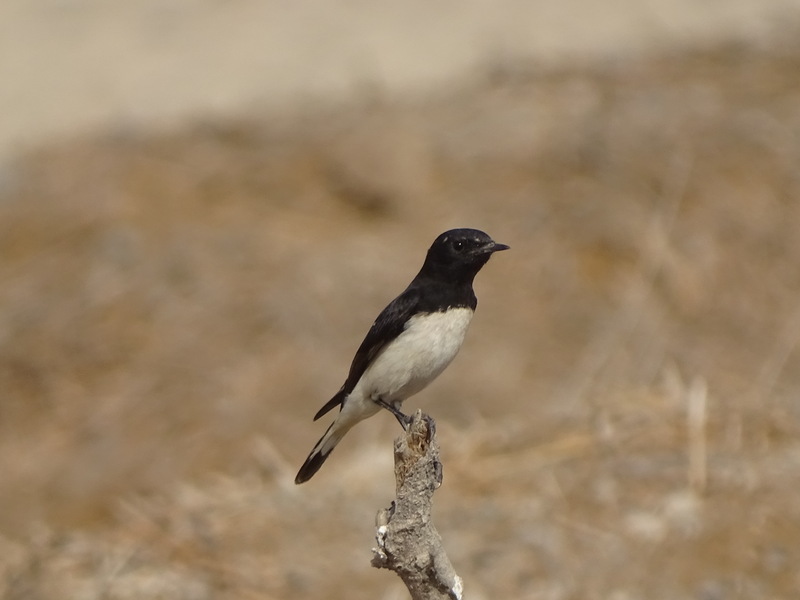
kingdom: Animalia
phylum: Chordata
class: Aves
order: Passeriformes
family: Muscicapidae
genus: Oenanthe
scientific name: Oenanthe albonigra
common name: Hume's wheatear
